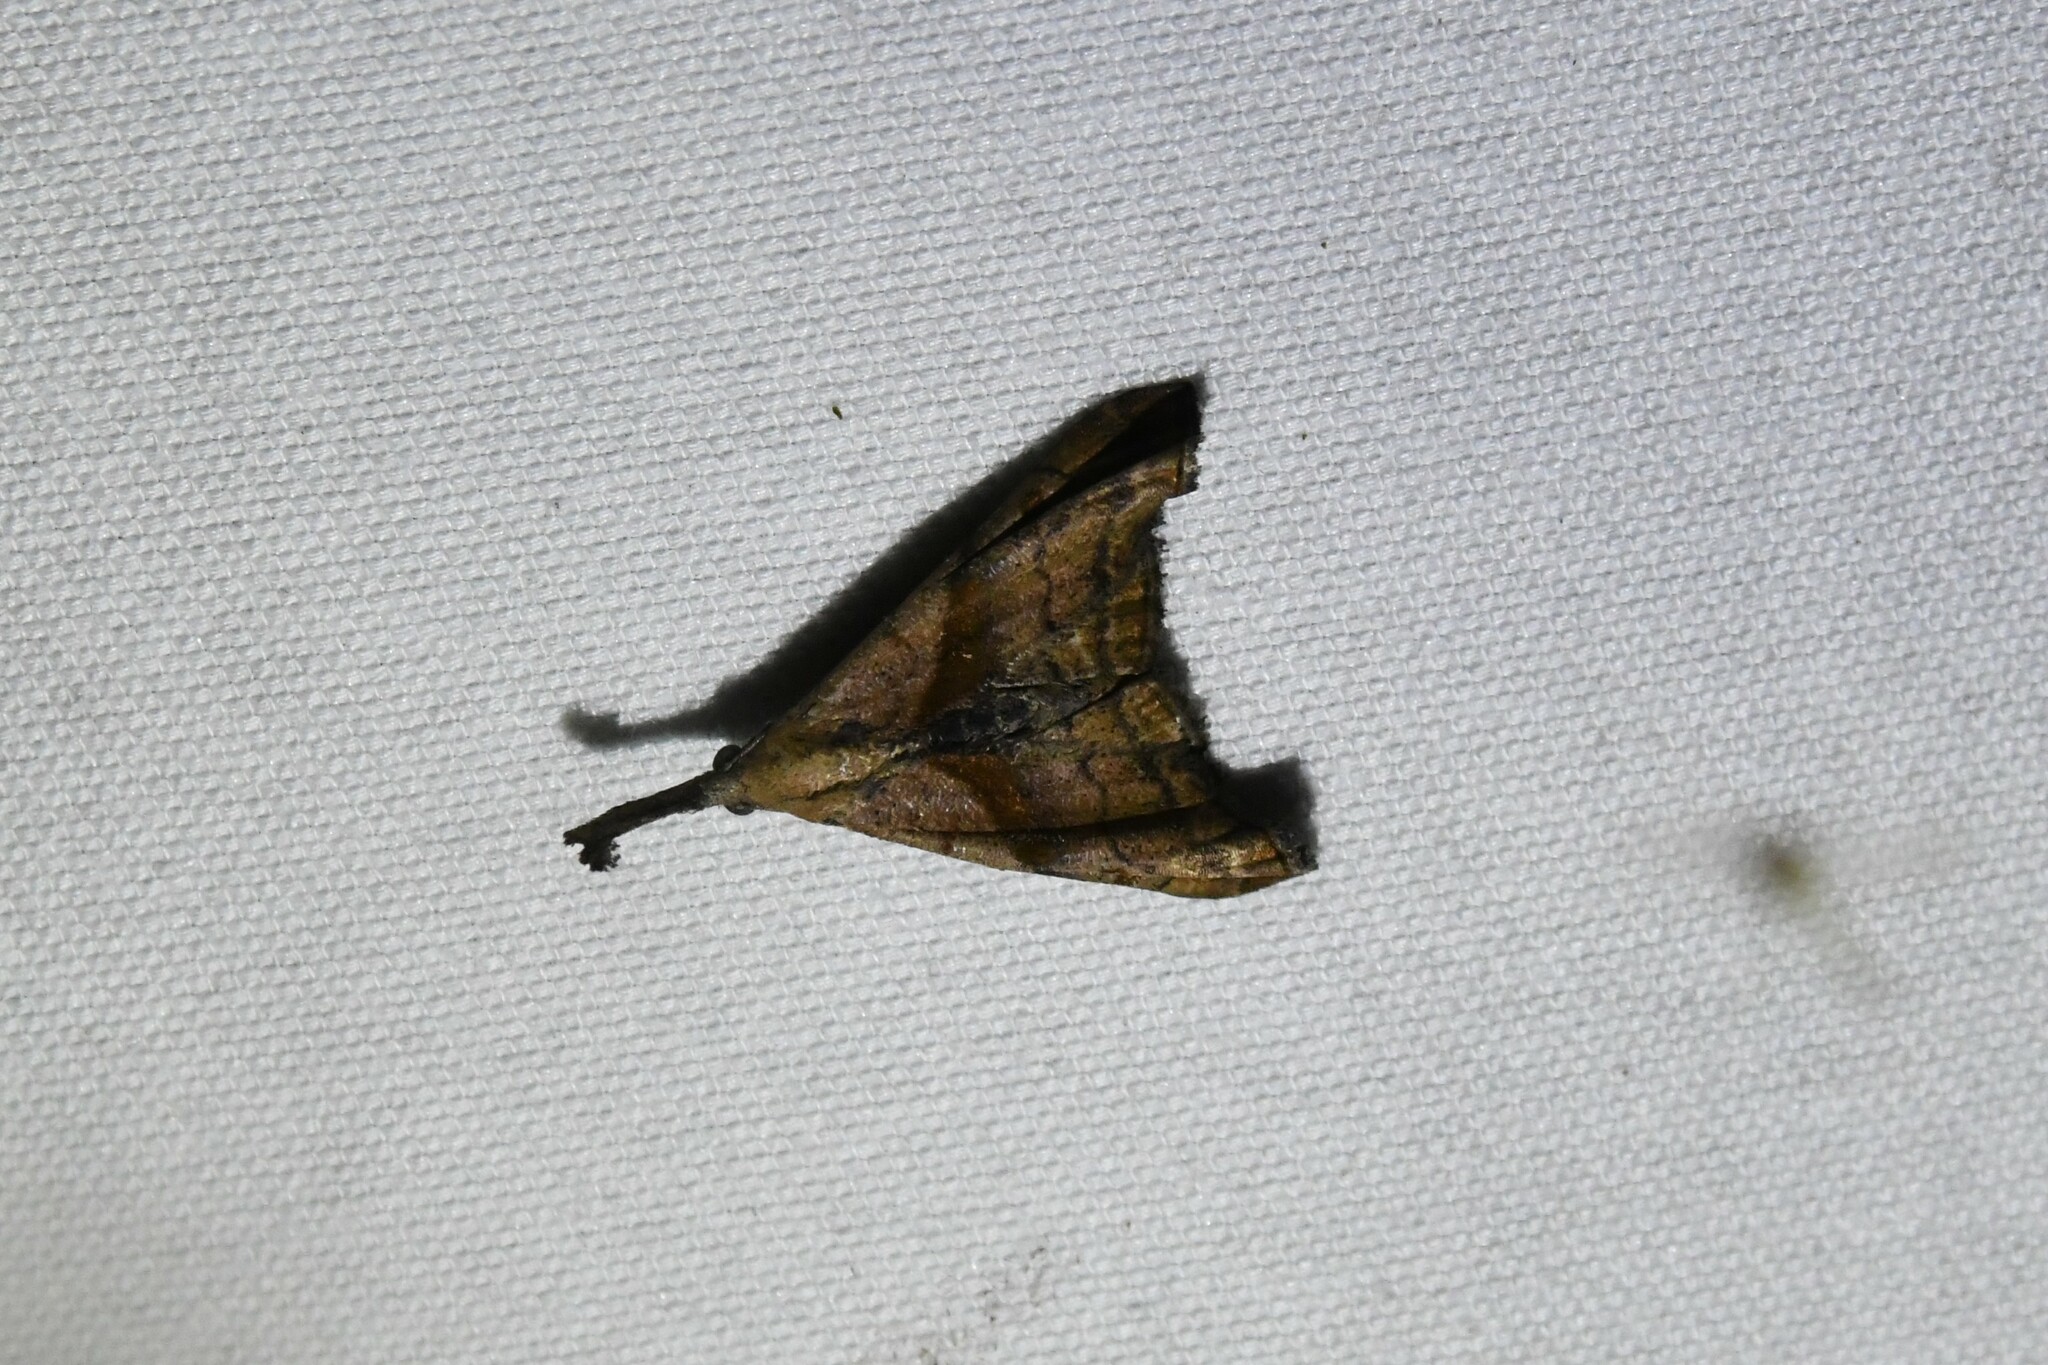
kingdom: Animalia
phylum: Arthropoda
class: Insecta
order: Lepidoptera
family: Erebidae
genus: Palthis
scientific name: Palthis angulalis
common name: Dark-spotted palthis moth
